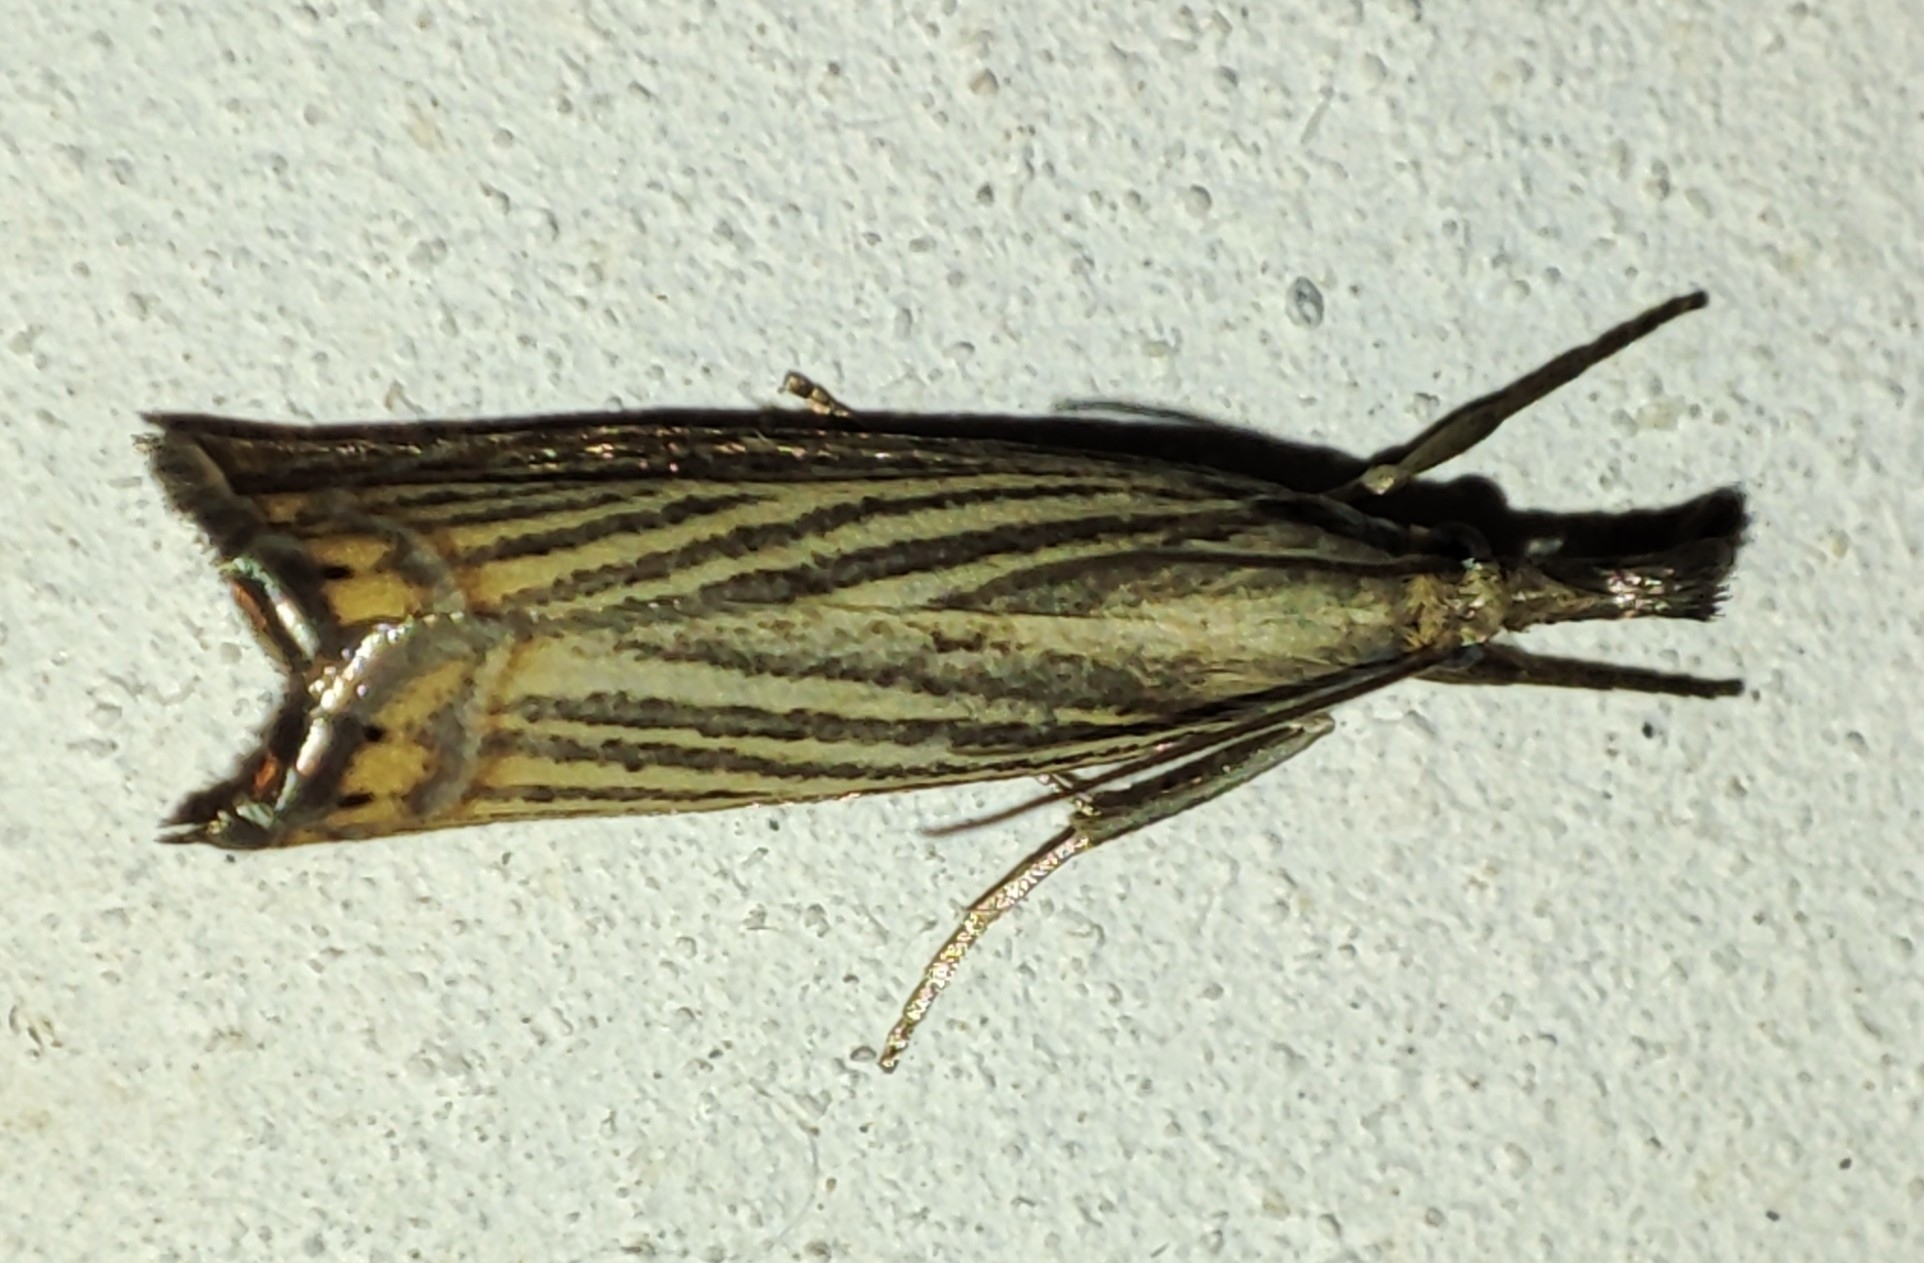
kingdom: Animalia
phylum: Arthropoda
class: Insecta
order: Lepidoptera
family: Crambidae
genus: Chrysoteuchia
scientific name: Chrysoteuchia culmella
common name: Garden grass-veneer
